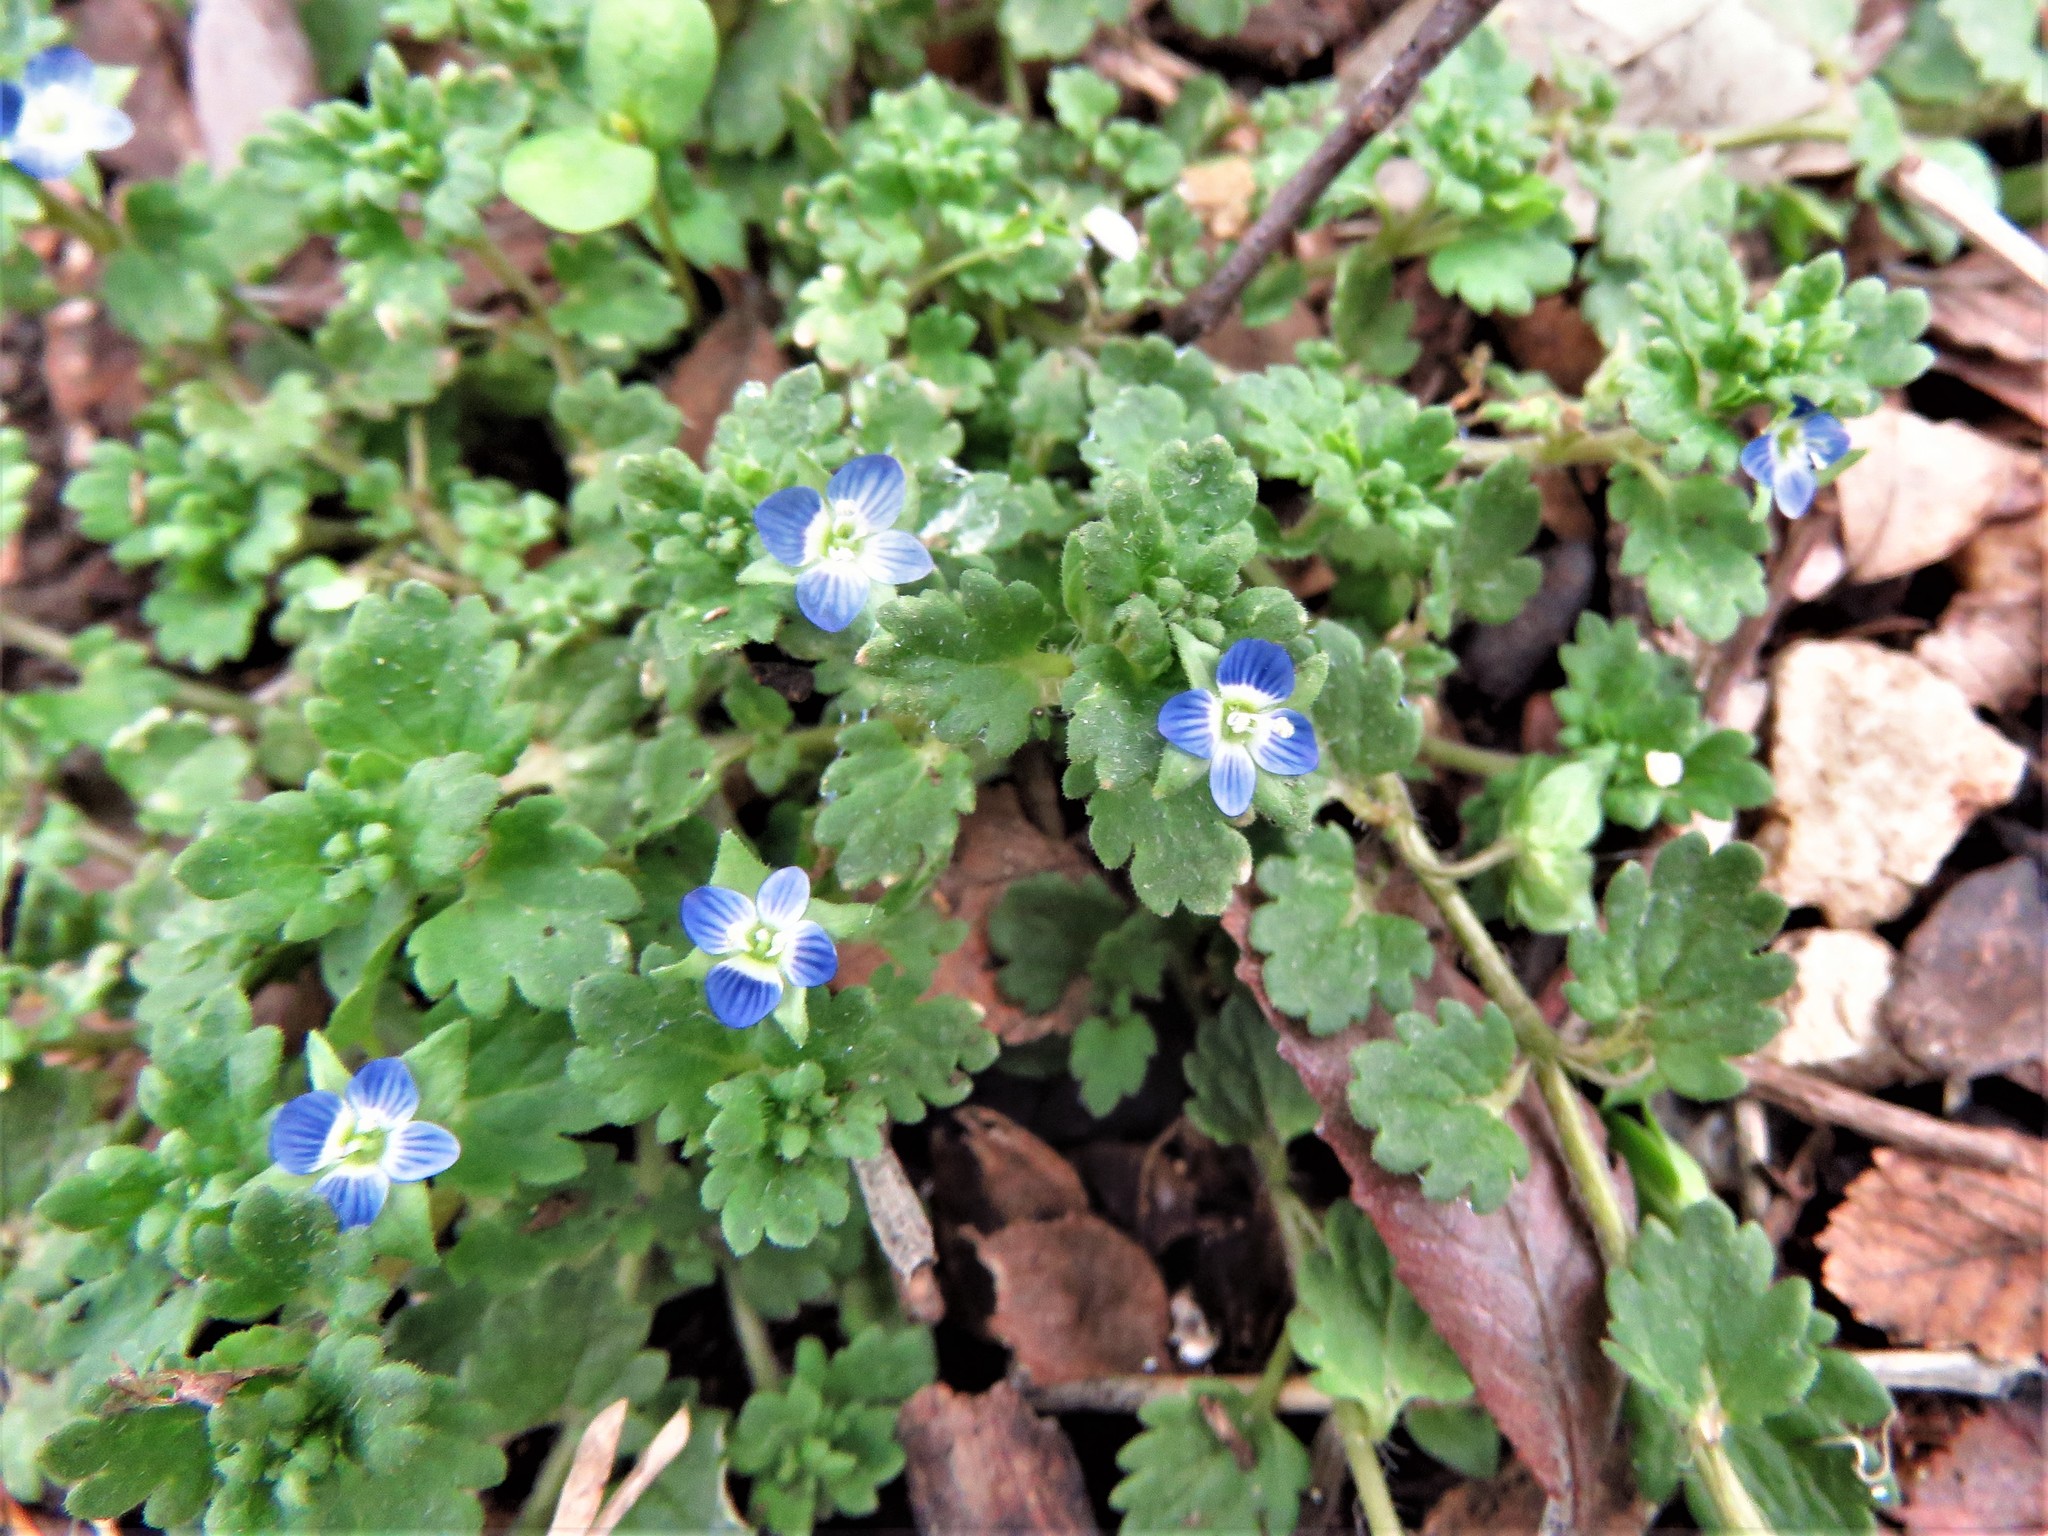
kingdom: Plantae
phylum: Tracheophyta
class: Magnoliopsida
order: Lamiales
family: Plantaginaceae
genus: Veronica
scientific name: Veronica polita
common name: Grey field-speedwell
